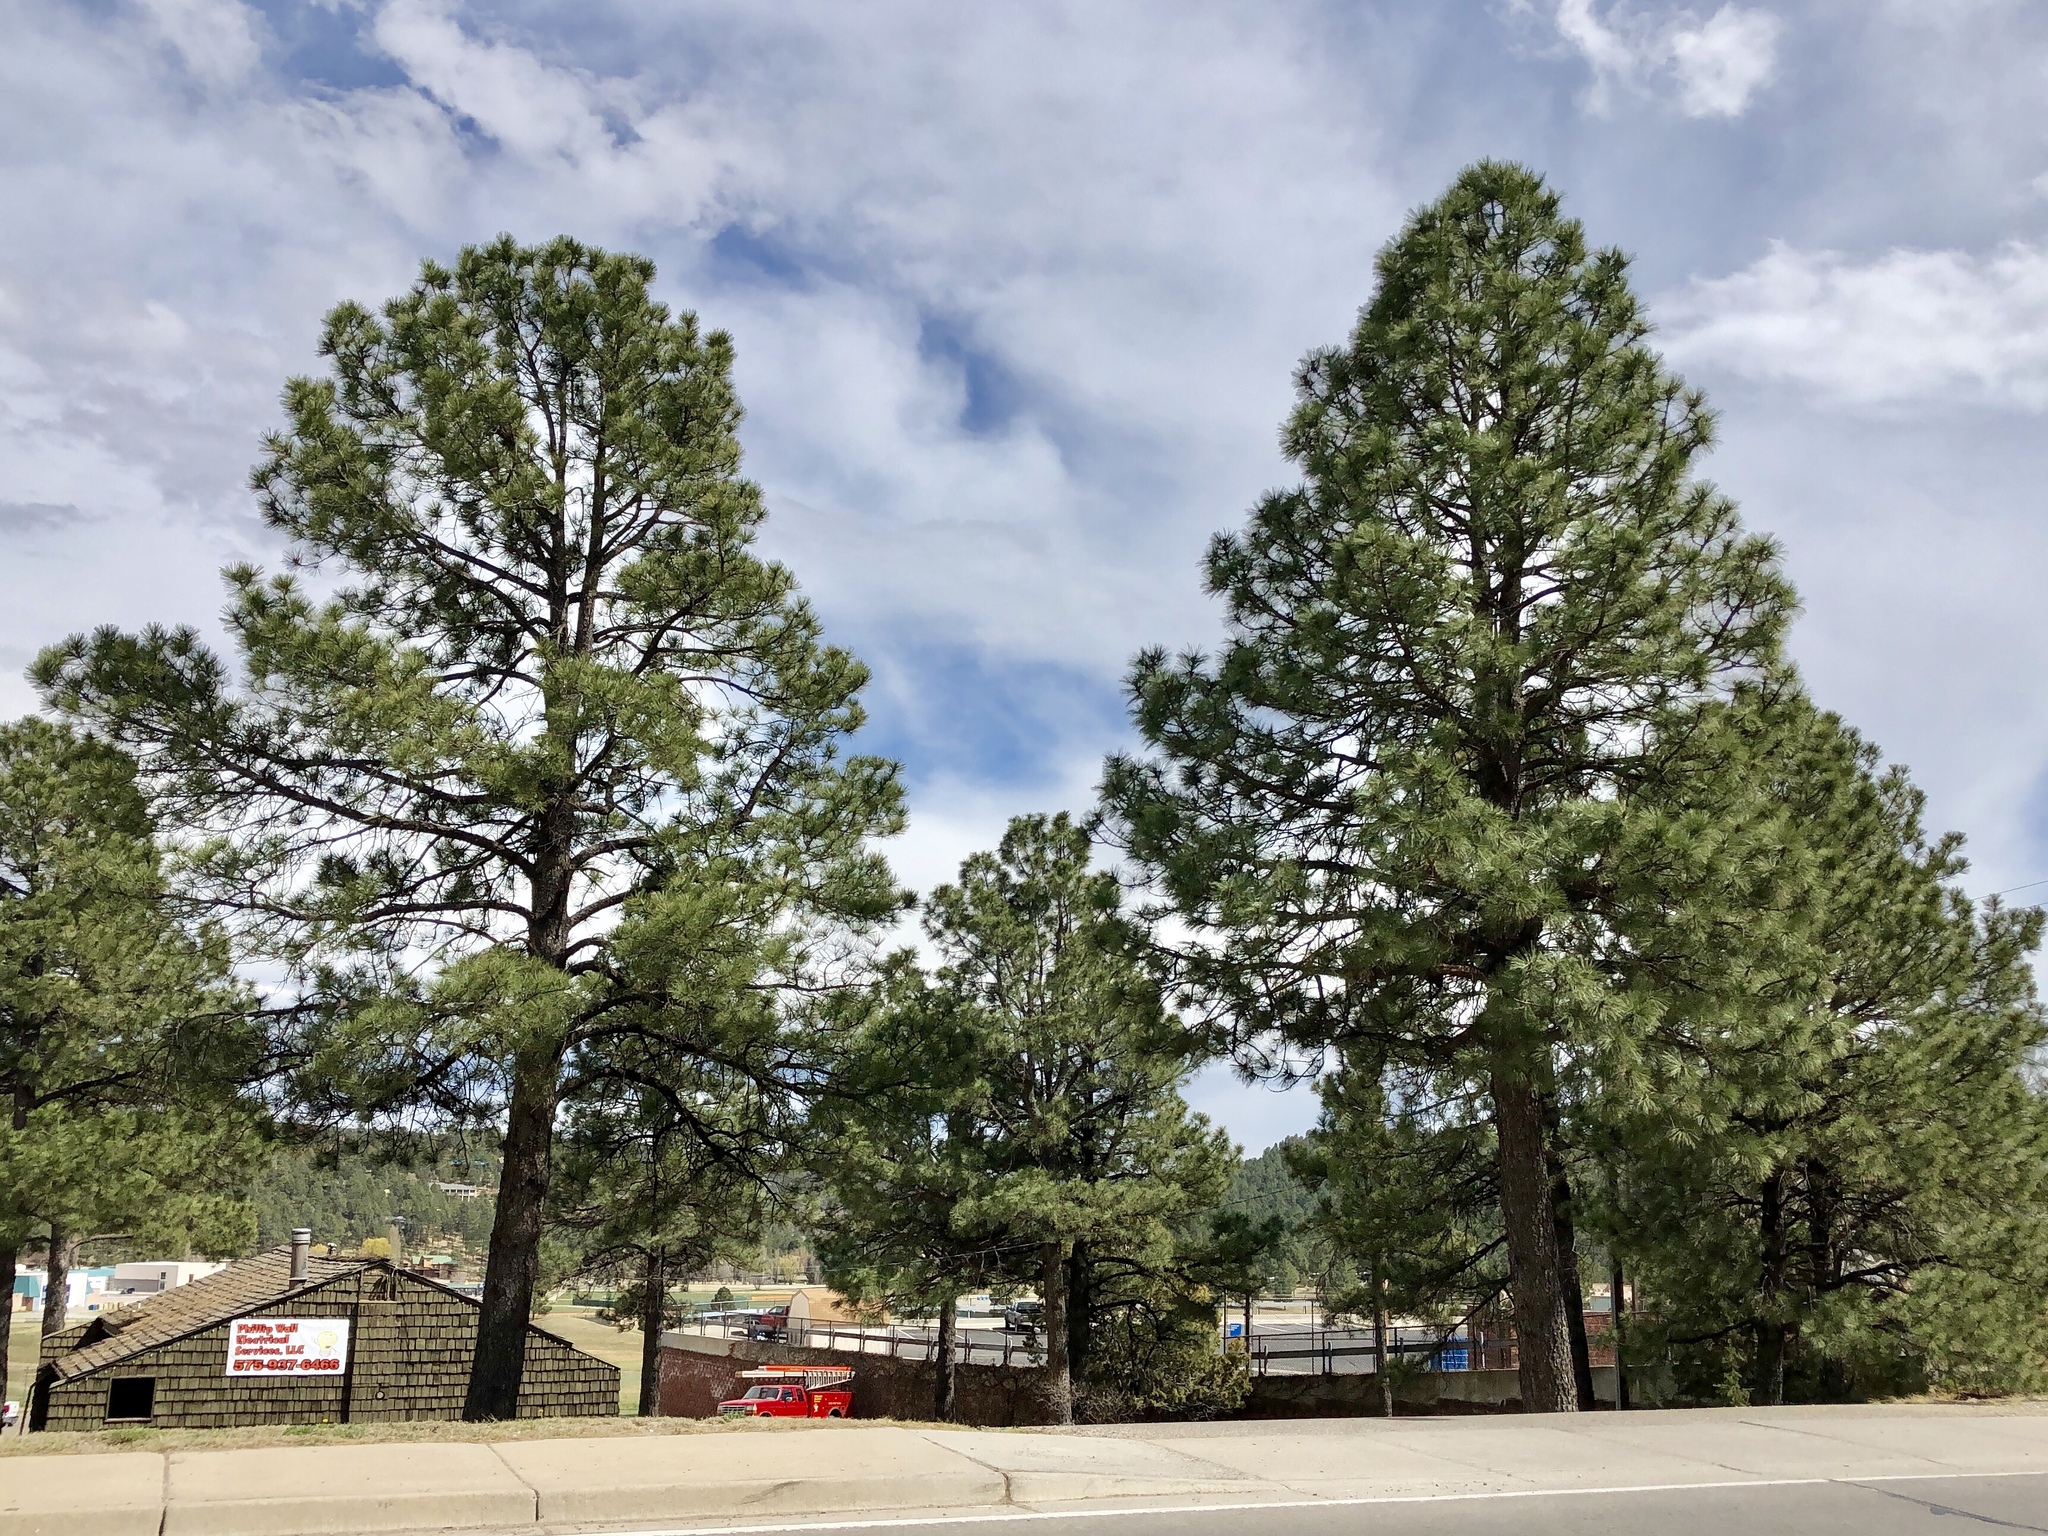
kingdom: Plantae
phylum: Tracheophyta
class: Pinopsida
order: Pinales
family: Pinaceae
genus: Pinus
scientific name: Pinus ponderosa
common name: Western yellow-pine
